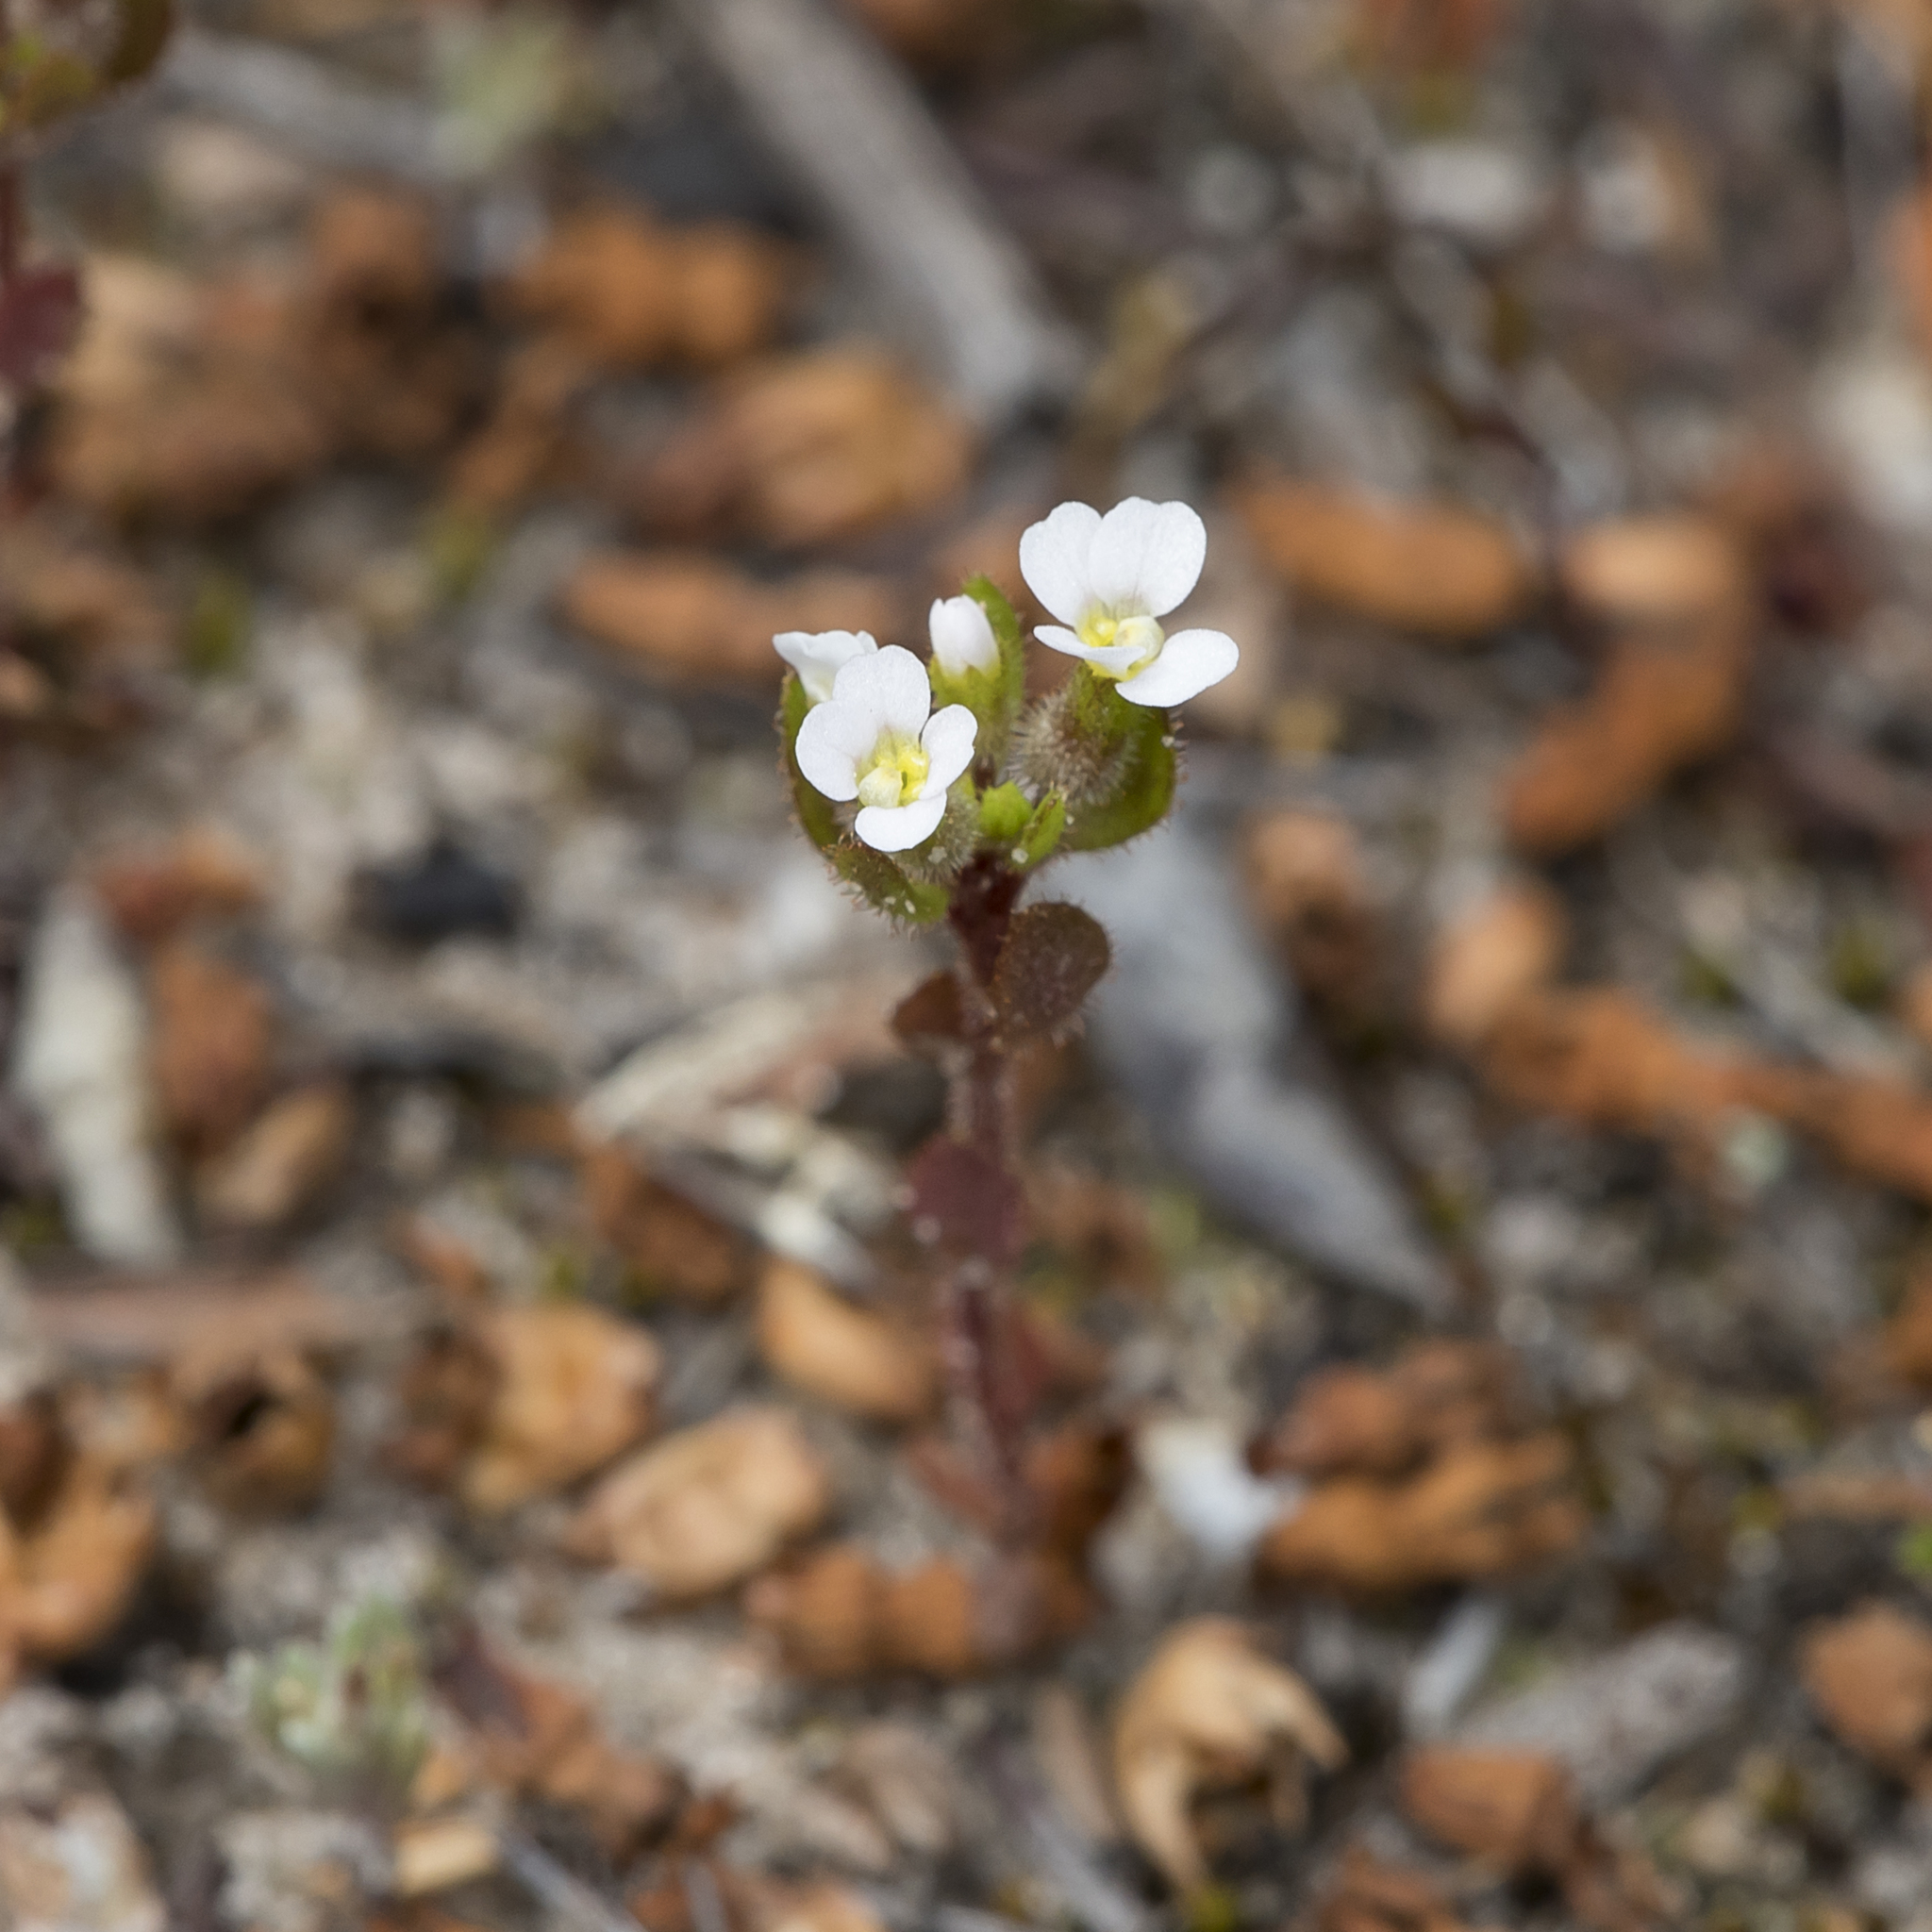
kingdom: Plantae
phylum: Tracheophyta
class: Magnoliopsida
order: Asterales
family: Stylidiaceae
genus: Levenhookia
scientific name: Levenhookia dubia
